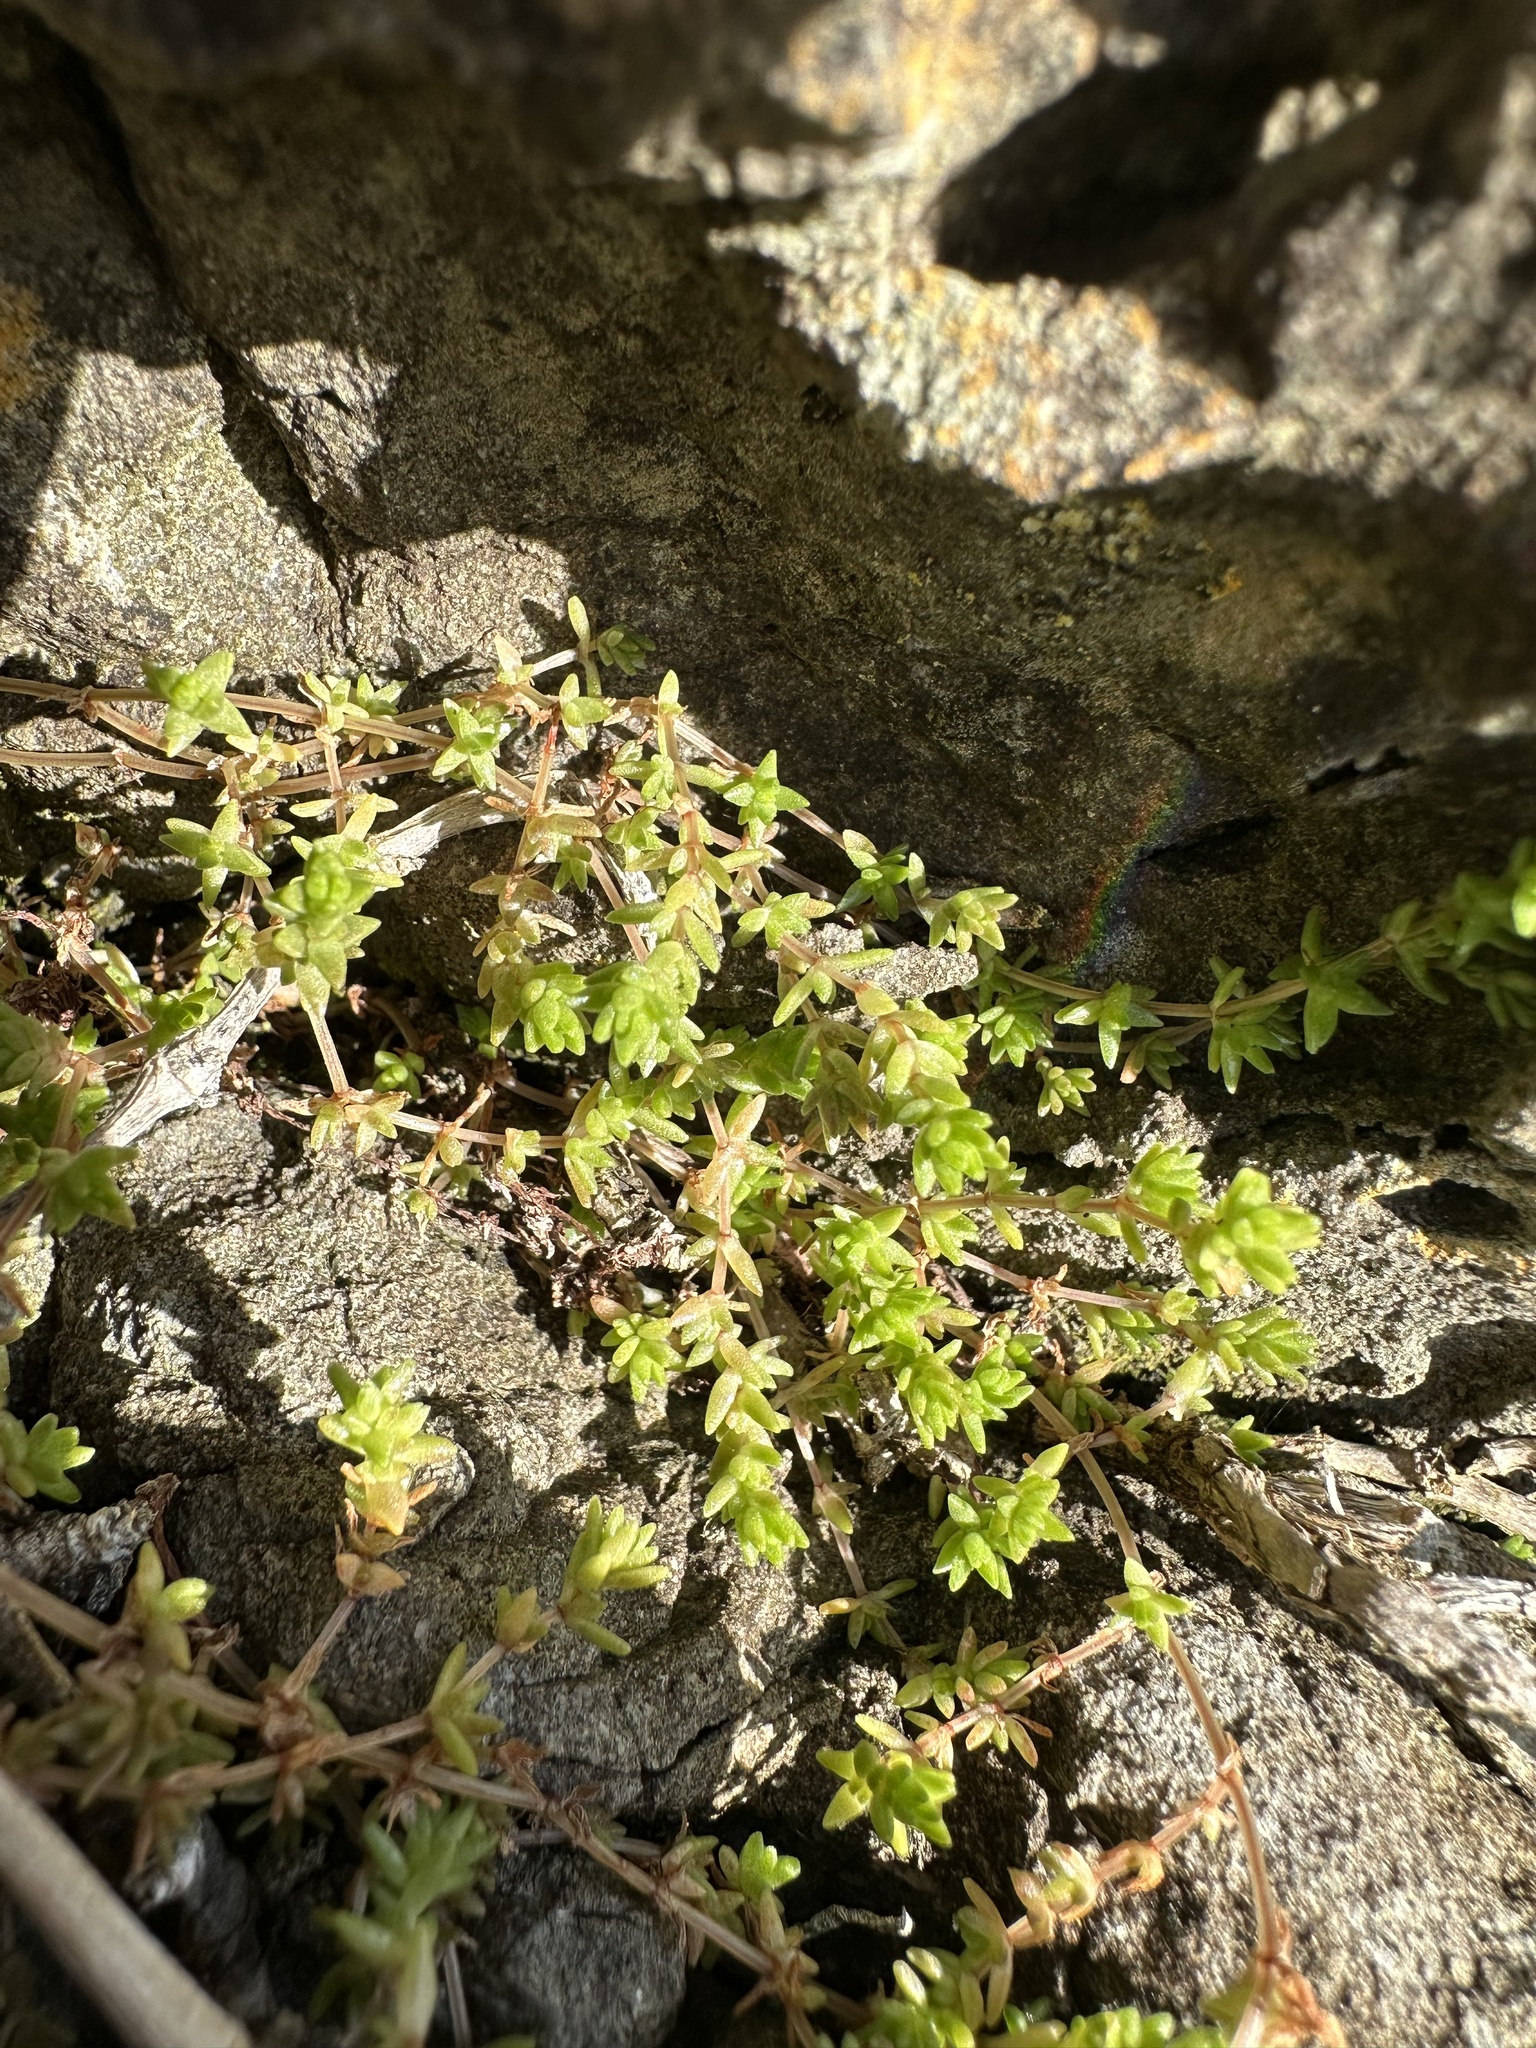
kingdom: Plantae
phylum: Tracheophyta
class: Magnoliopsida
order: Saxifragales
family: Crassulaceae
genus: Crassula
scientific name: Crassula sieberiana
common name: Siberian pygmyweed
